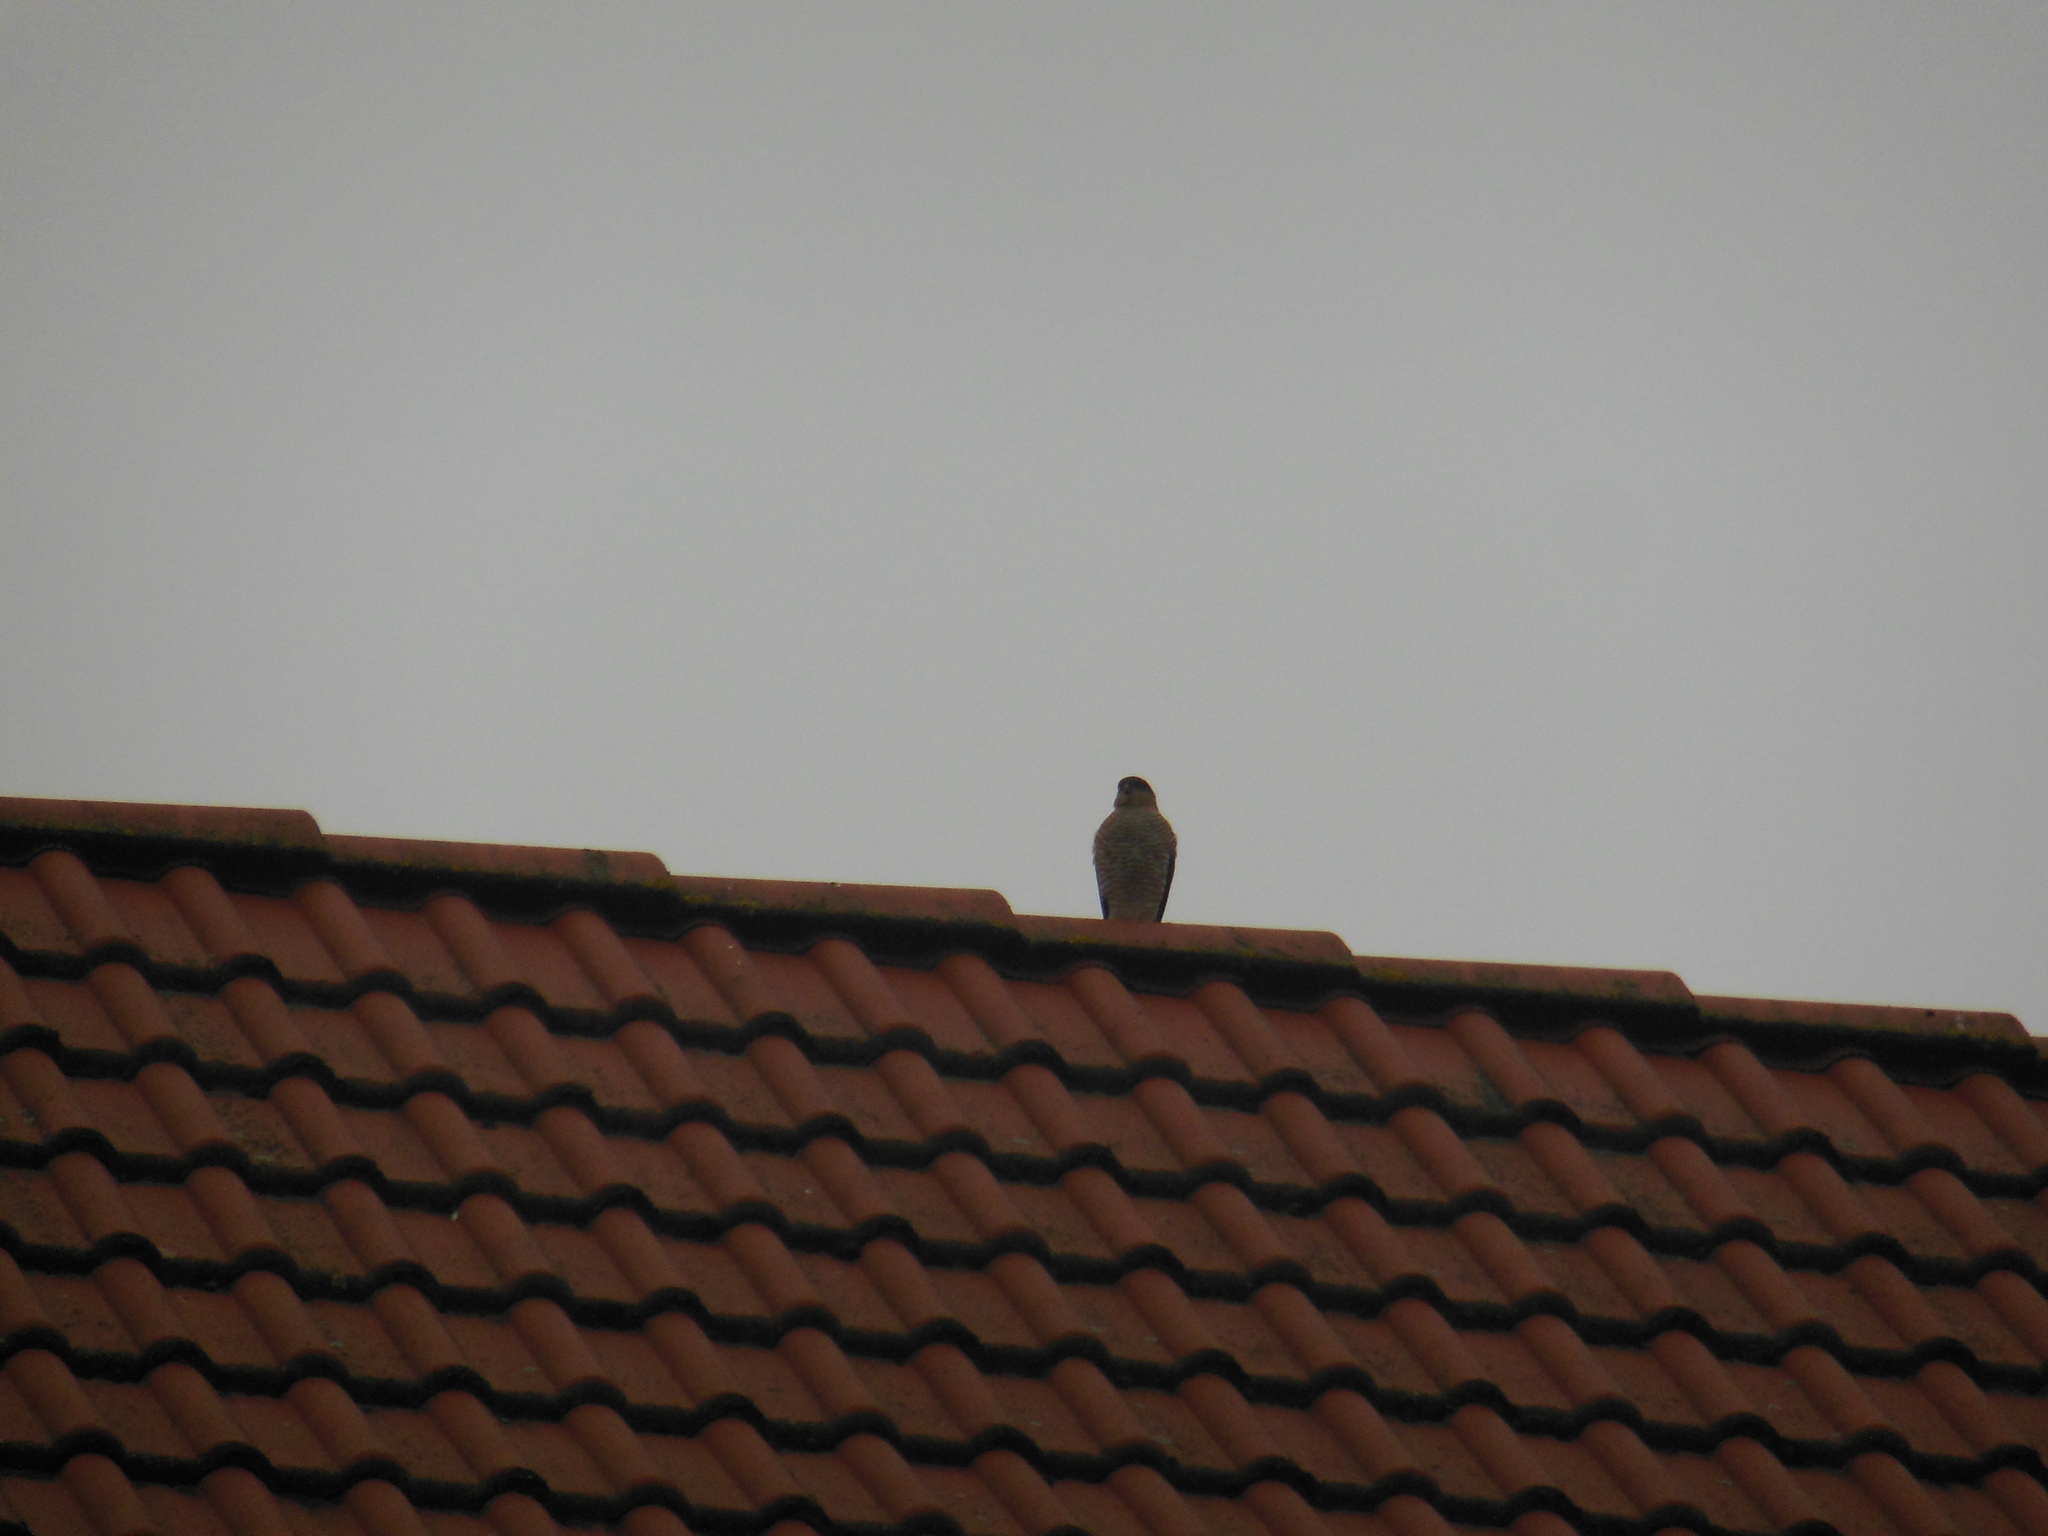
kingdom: Animalia
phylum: Chordata
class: Aves
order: Accipitriformes
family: Accipitridae
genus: Accipiter
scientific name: Accipiter nisus
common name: Eurasian sparrowhawk
